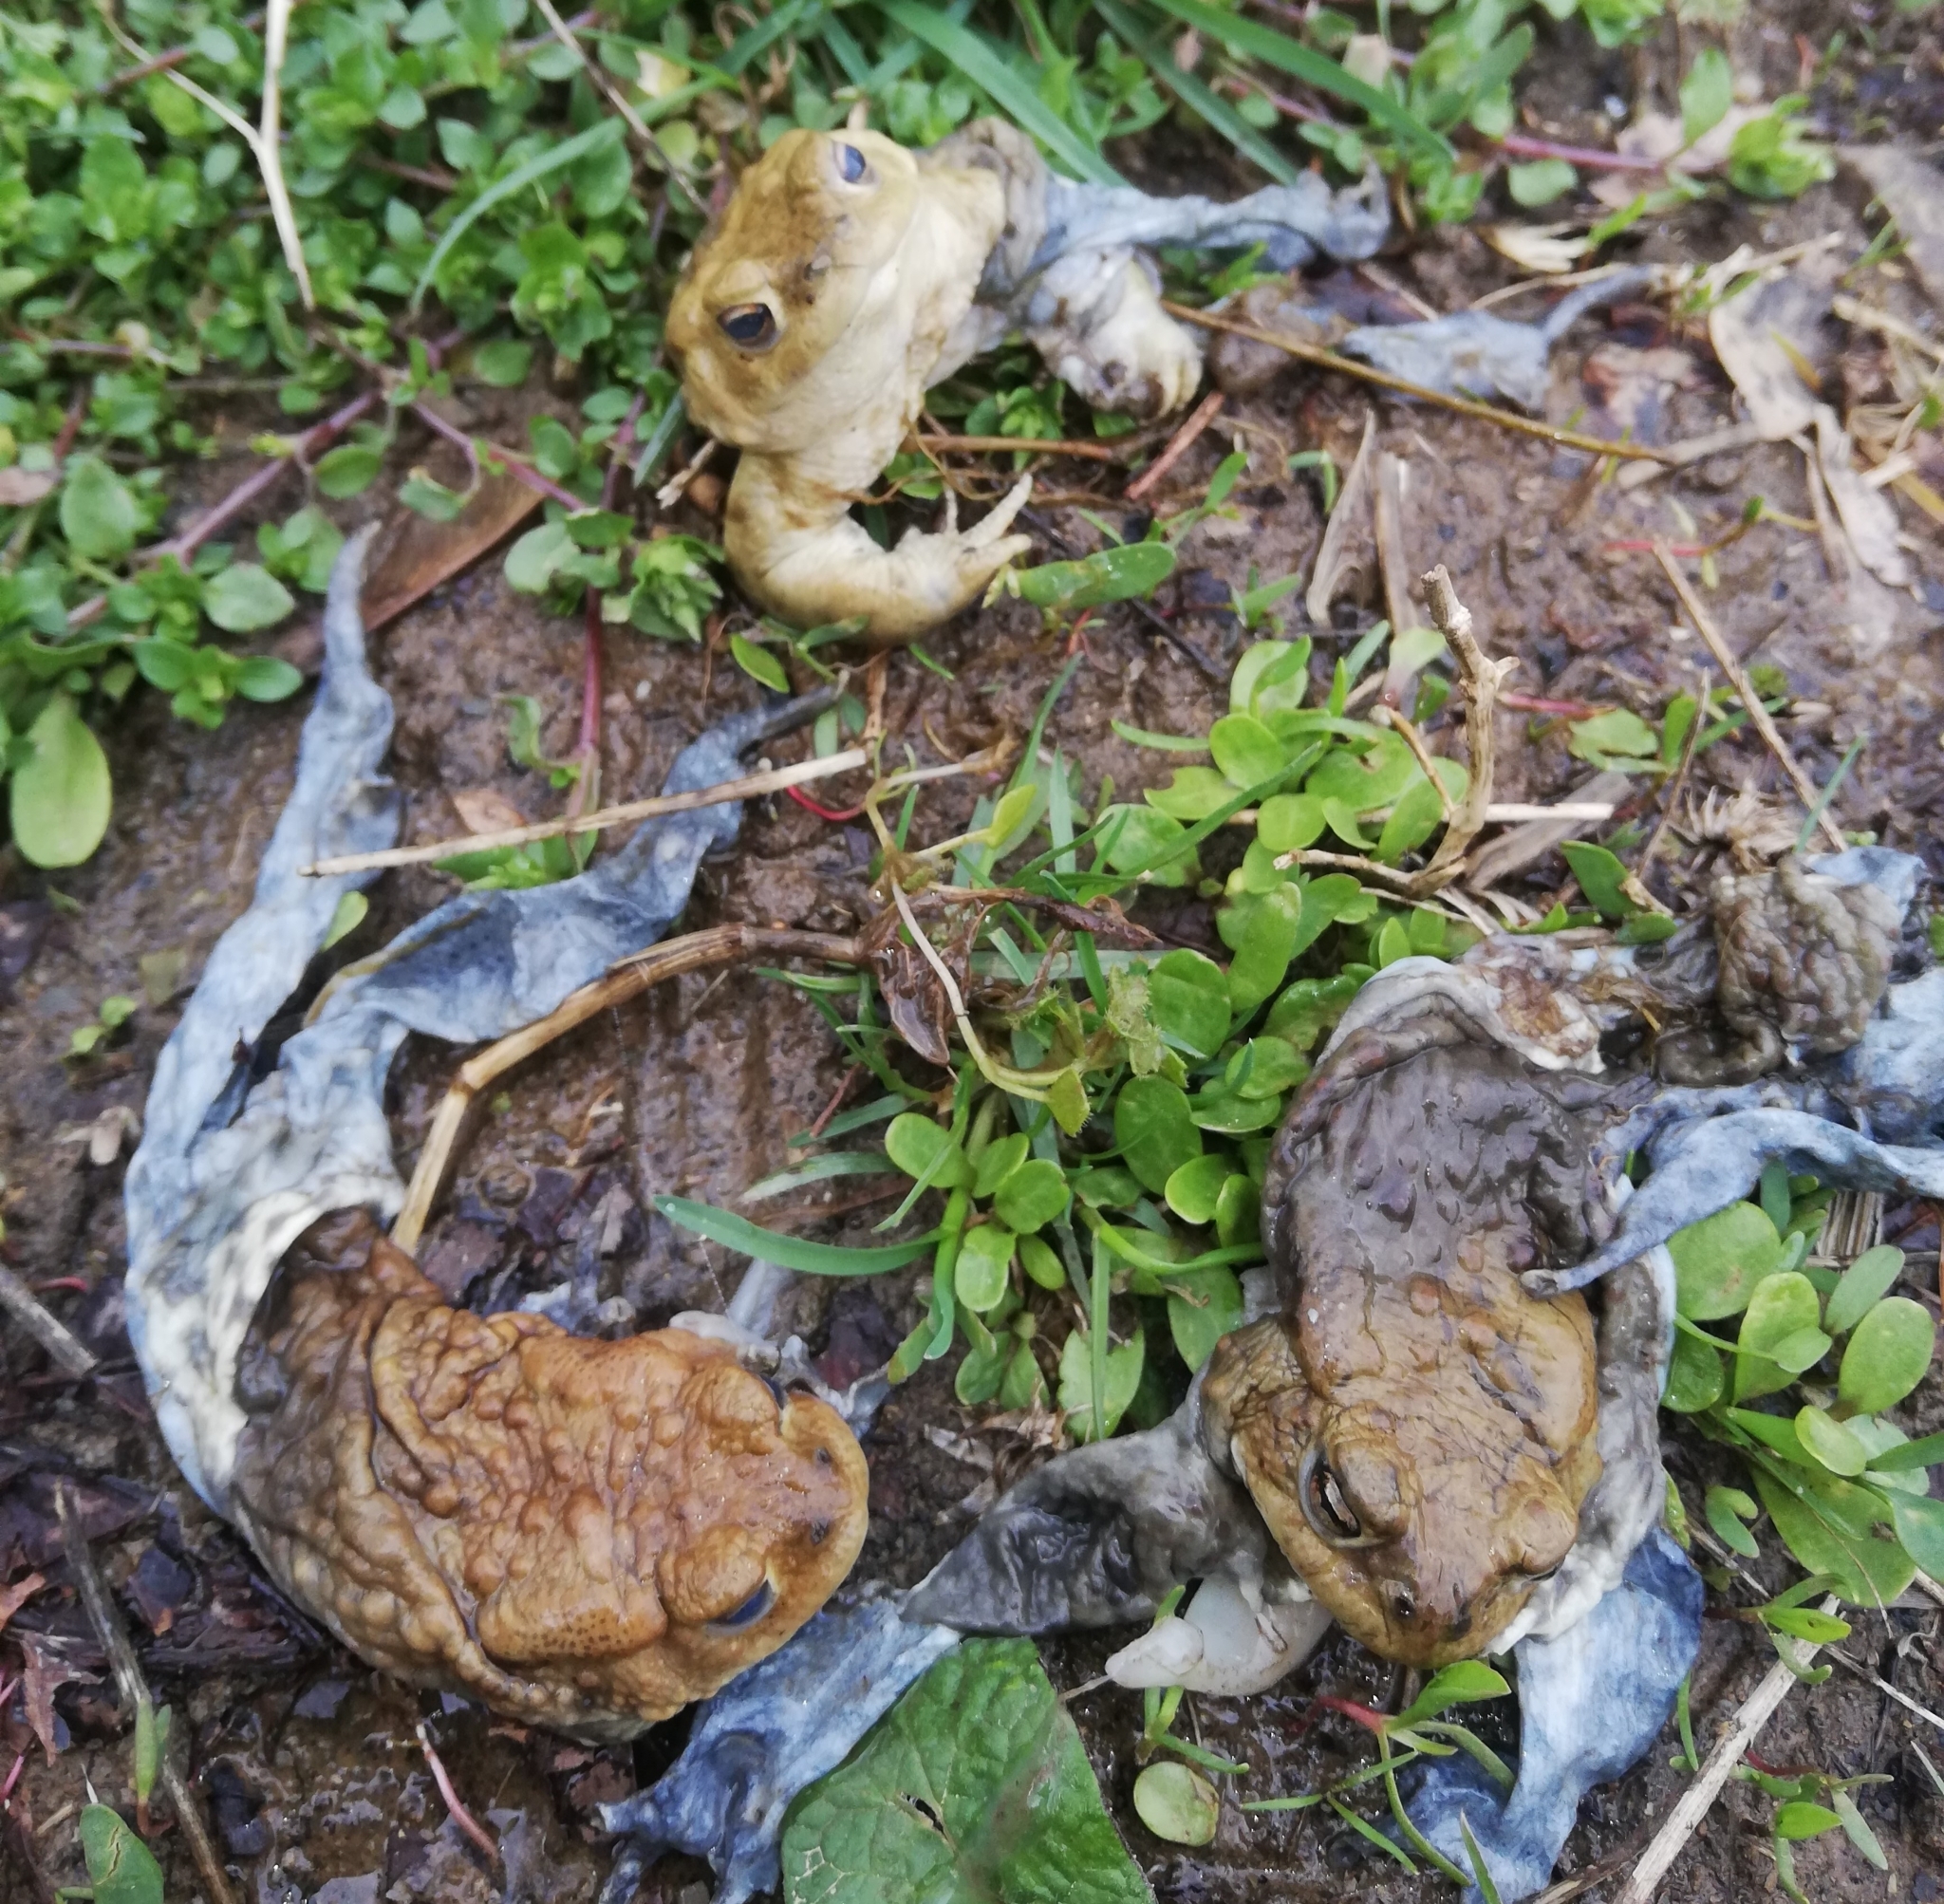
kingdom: Animalia
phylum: Chordata
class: Amphibia
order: Anura
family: Bufonidae
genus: Bufo
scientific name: Bufo bufo
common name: Common toad
